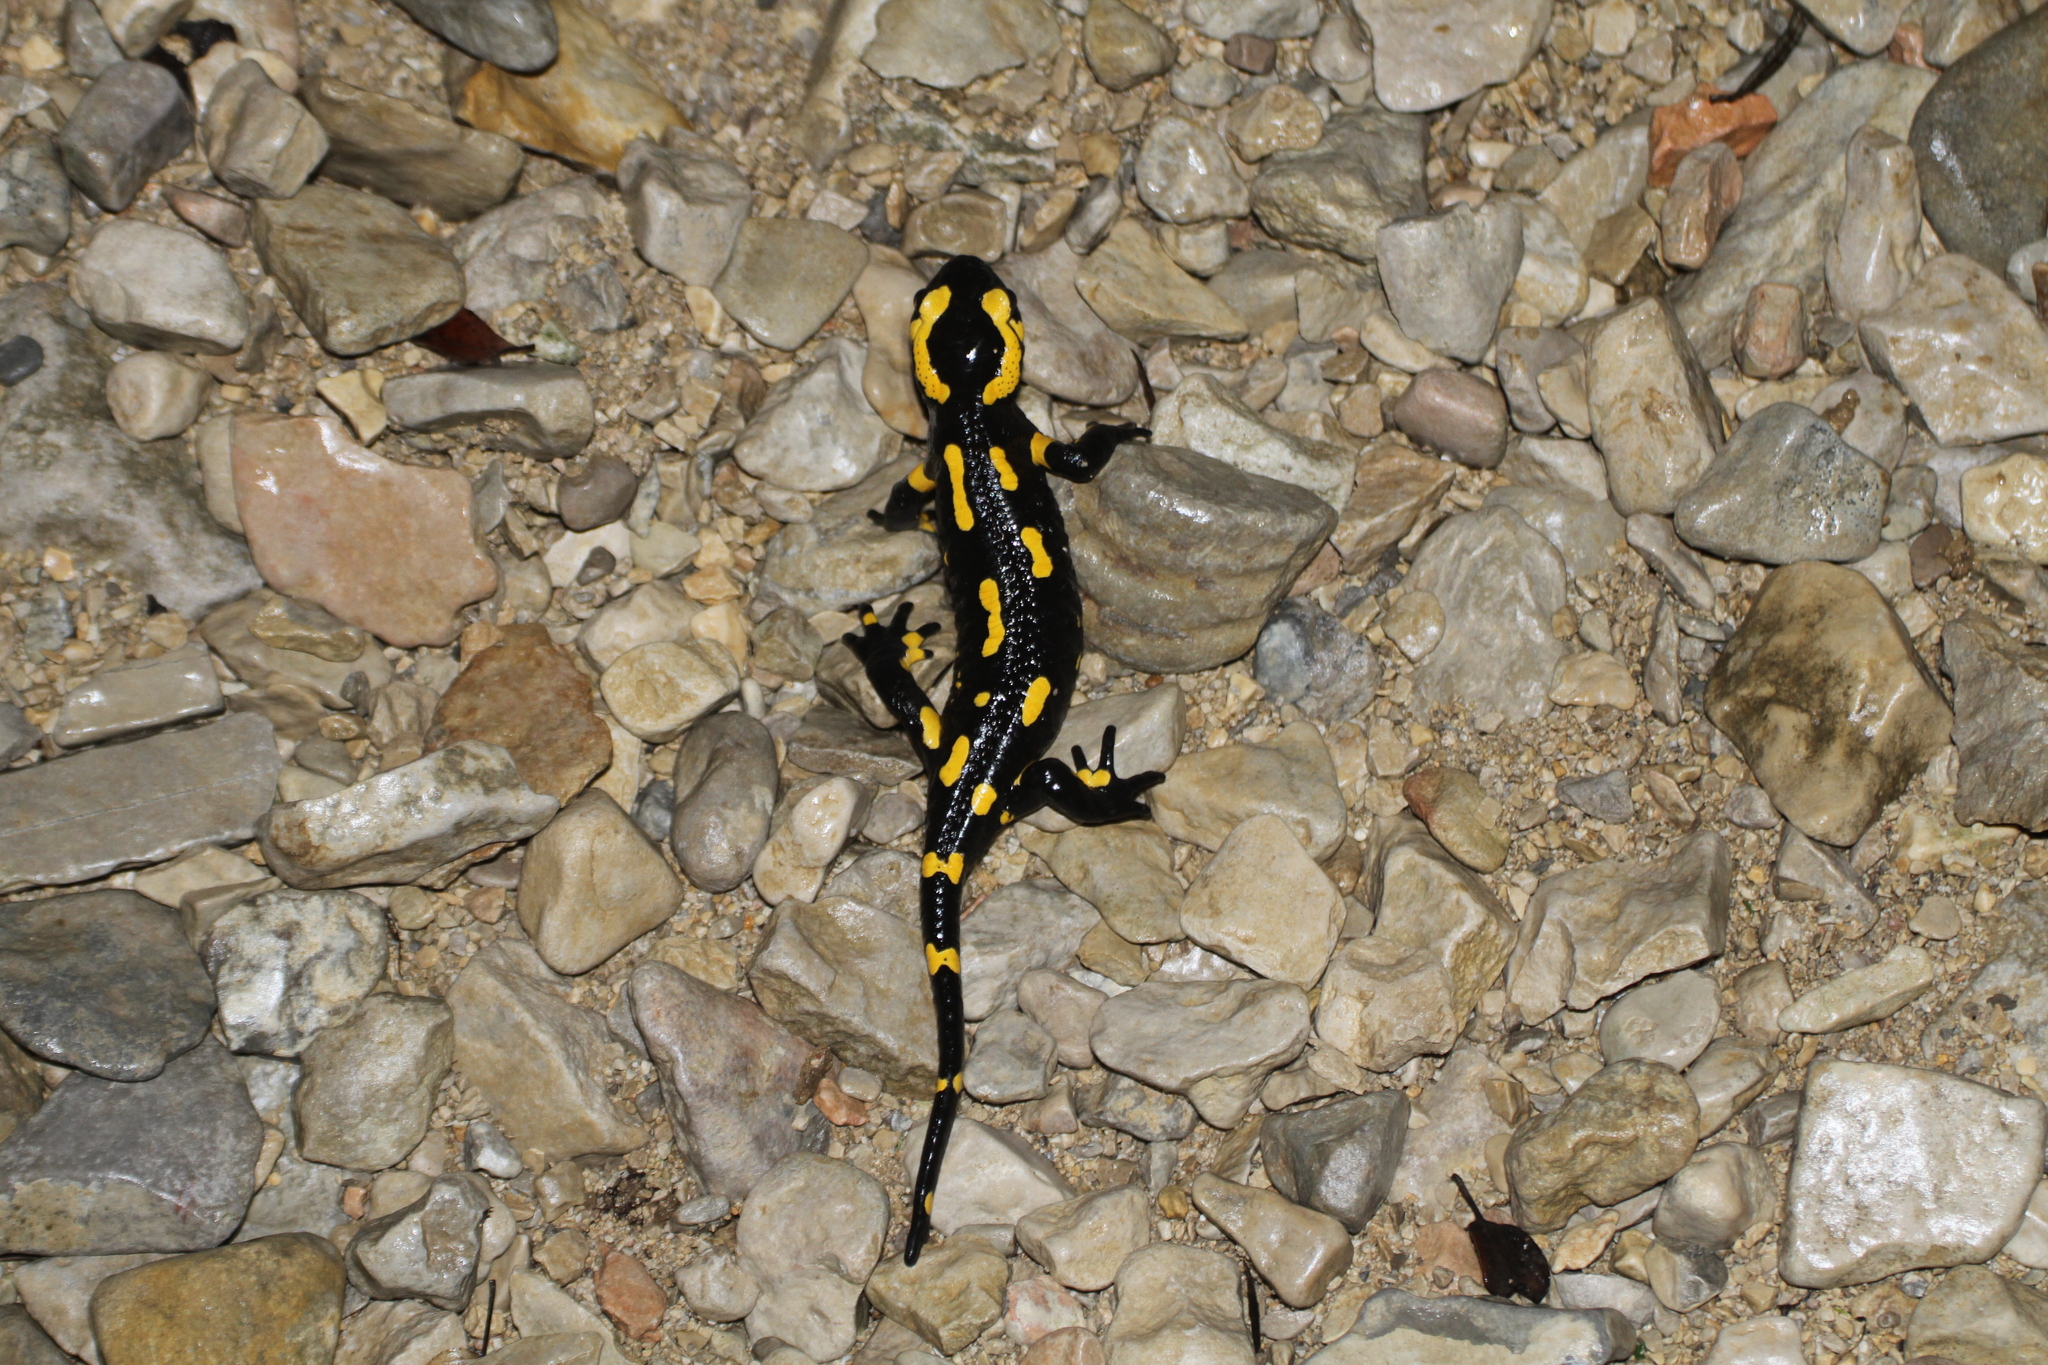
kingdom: Animalia
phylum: Chordata
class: Amphibia
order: Caudata
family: Salamandridae
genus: Salamandra
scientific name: Salamandra salamandra
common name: Fire salamander
